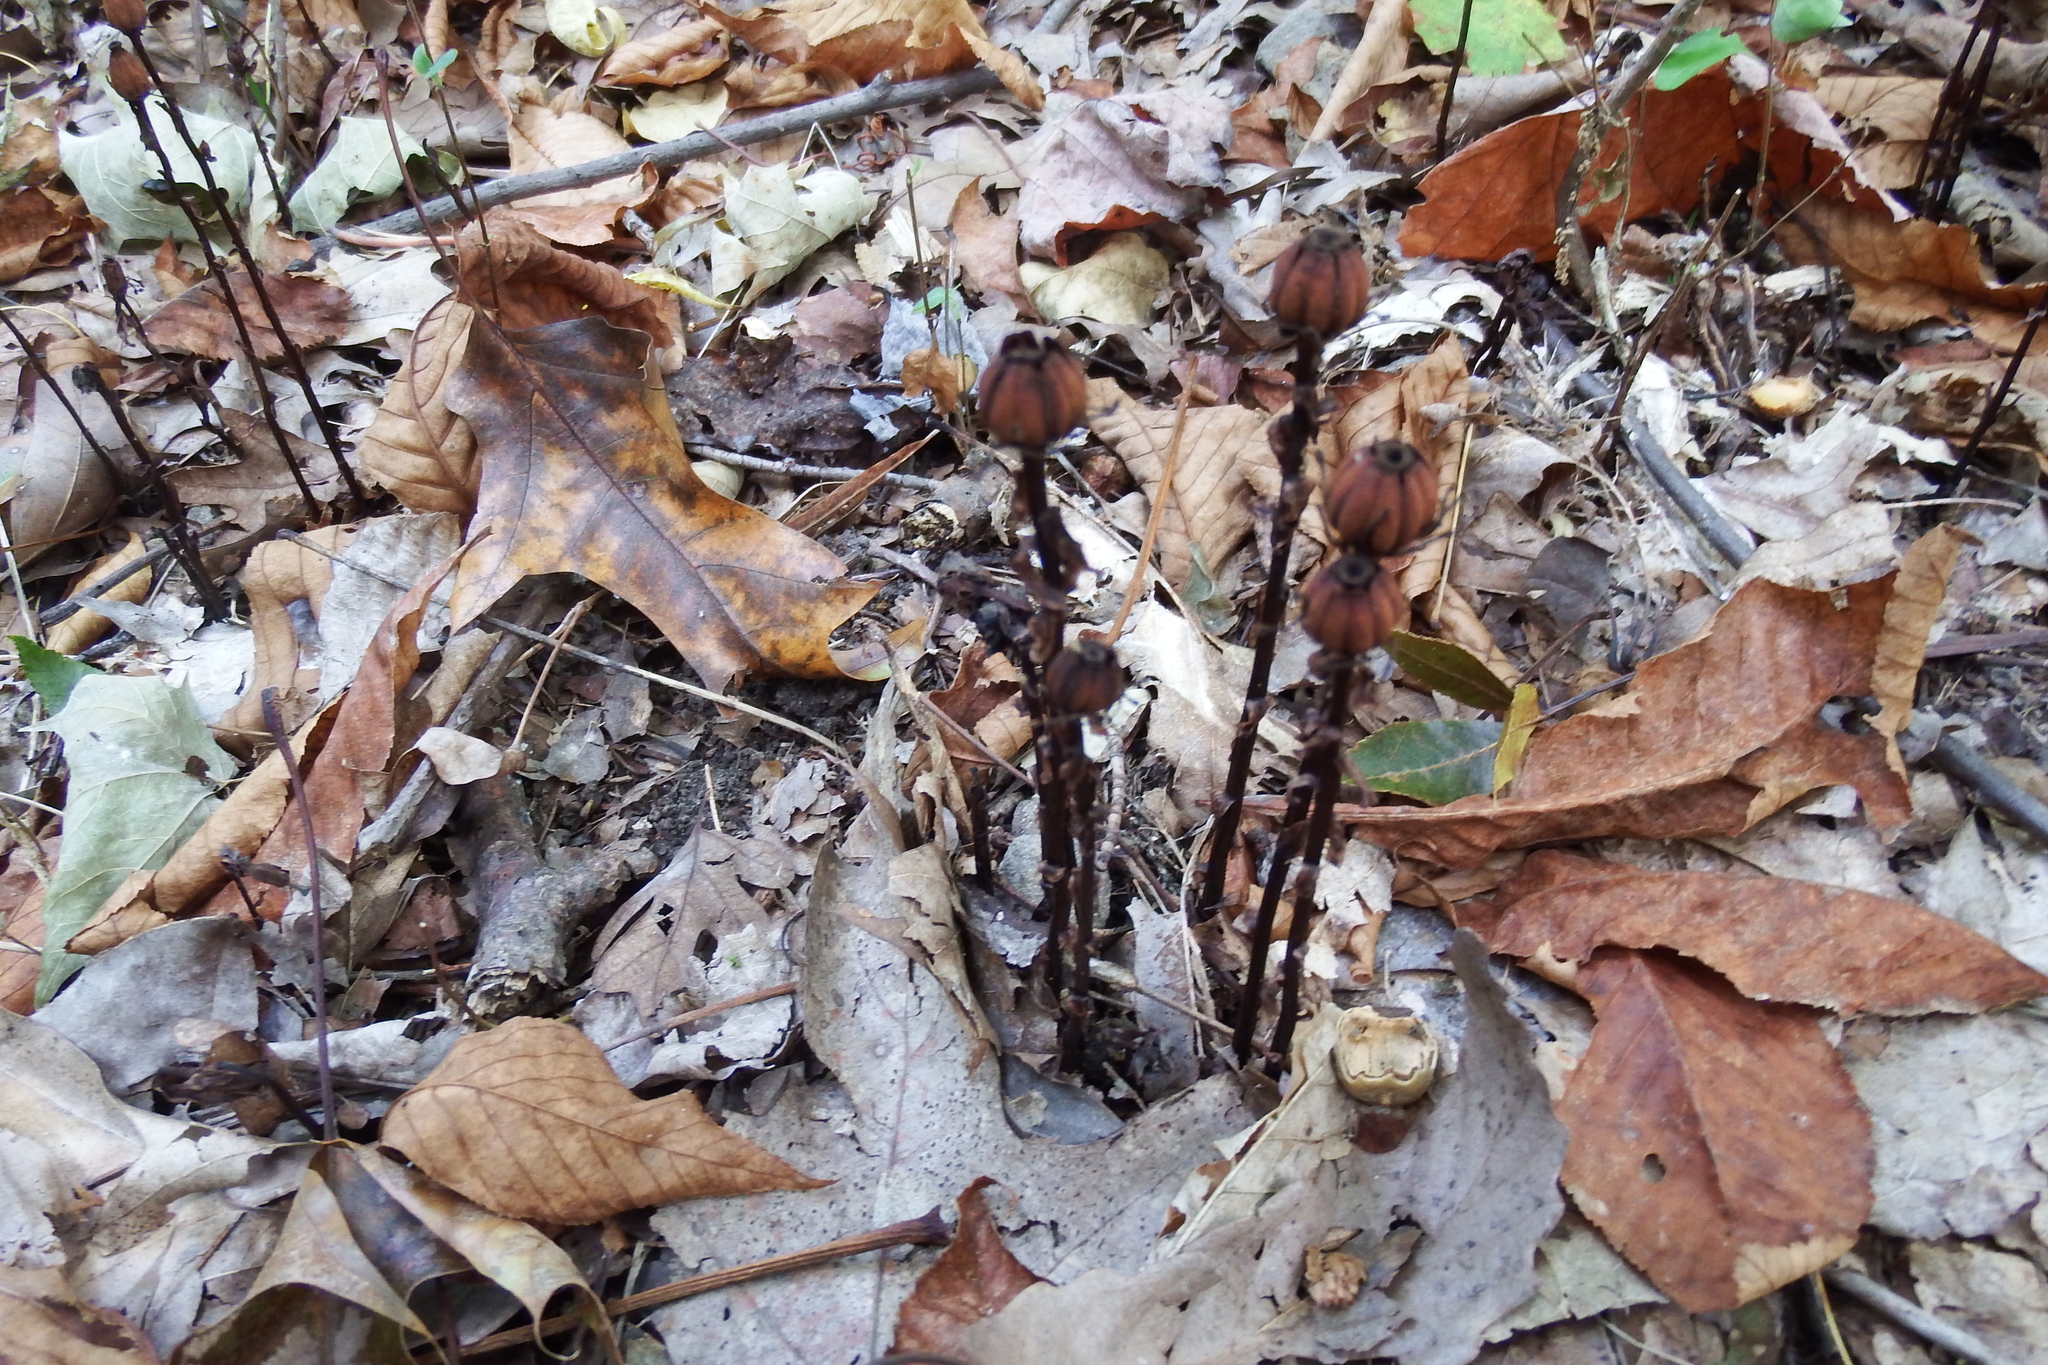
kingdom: Plantae
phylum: Tracheophyta
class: Magnoliopsida
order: Ericales
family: Ericaceae
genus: Monotropa
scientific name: Monotropa uniflora
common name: Convulsion root
